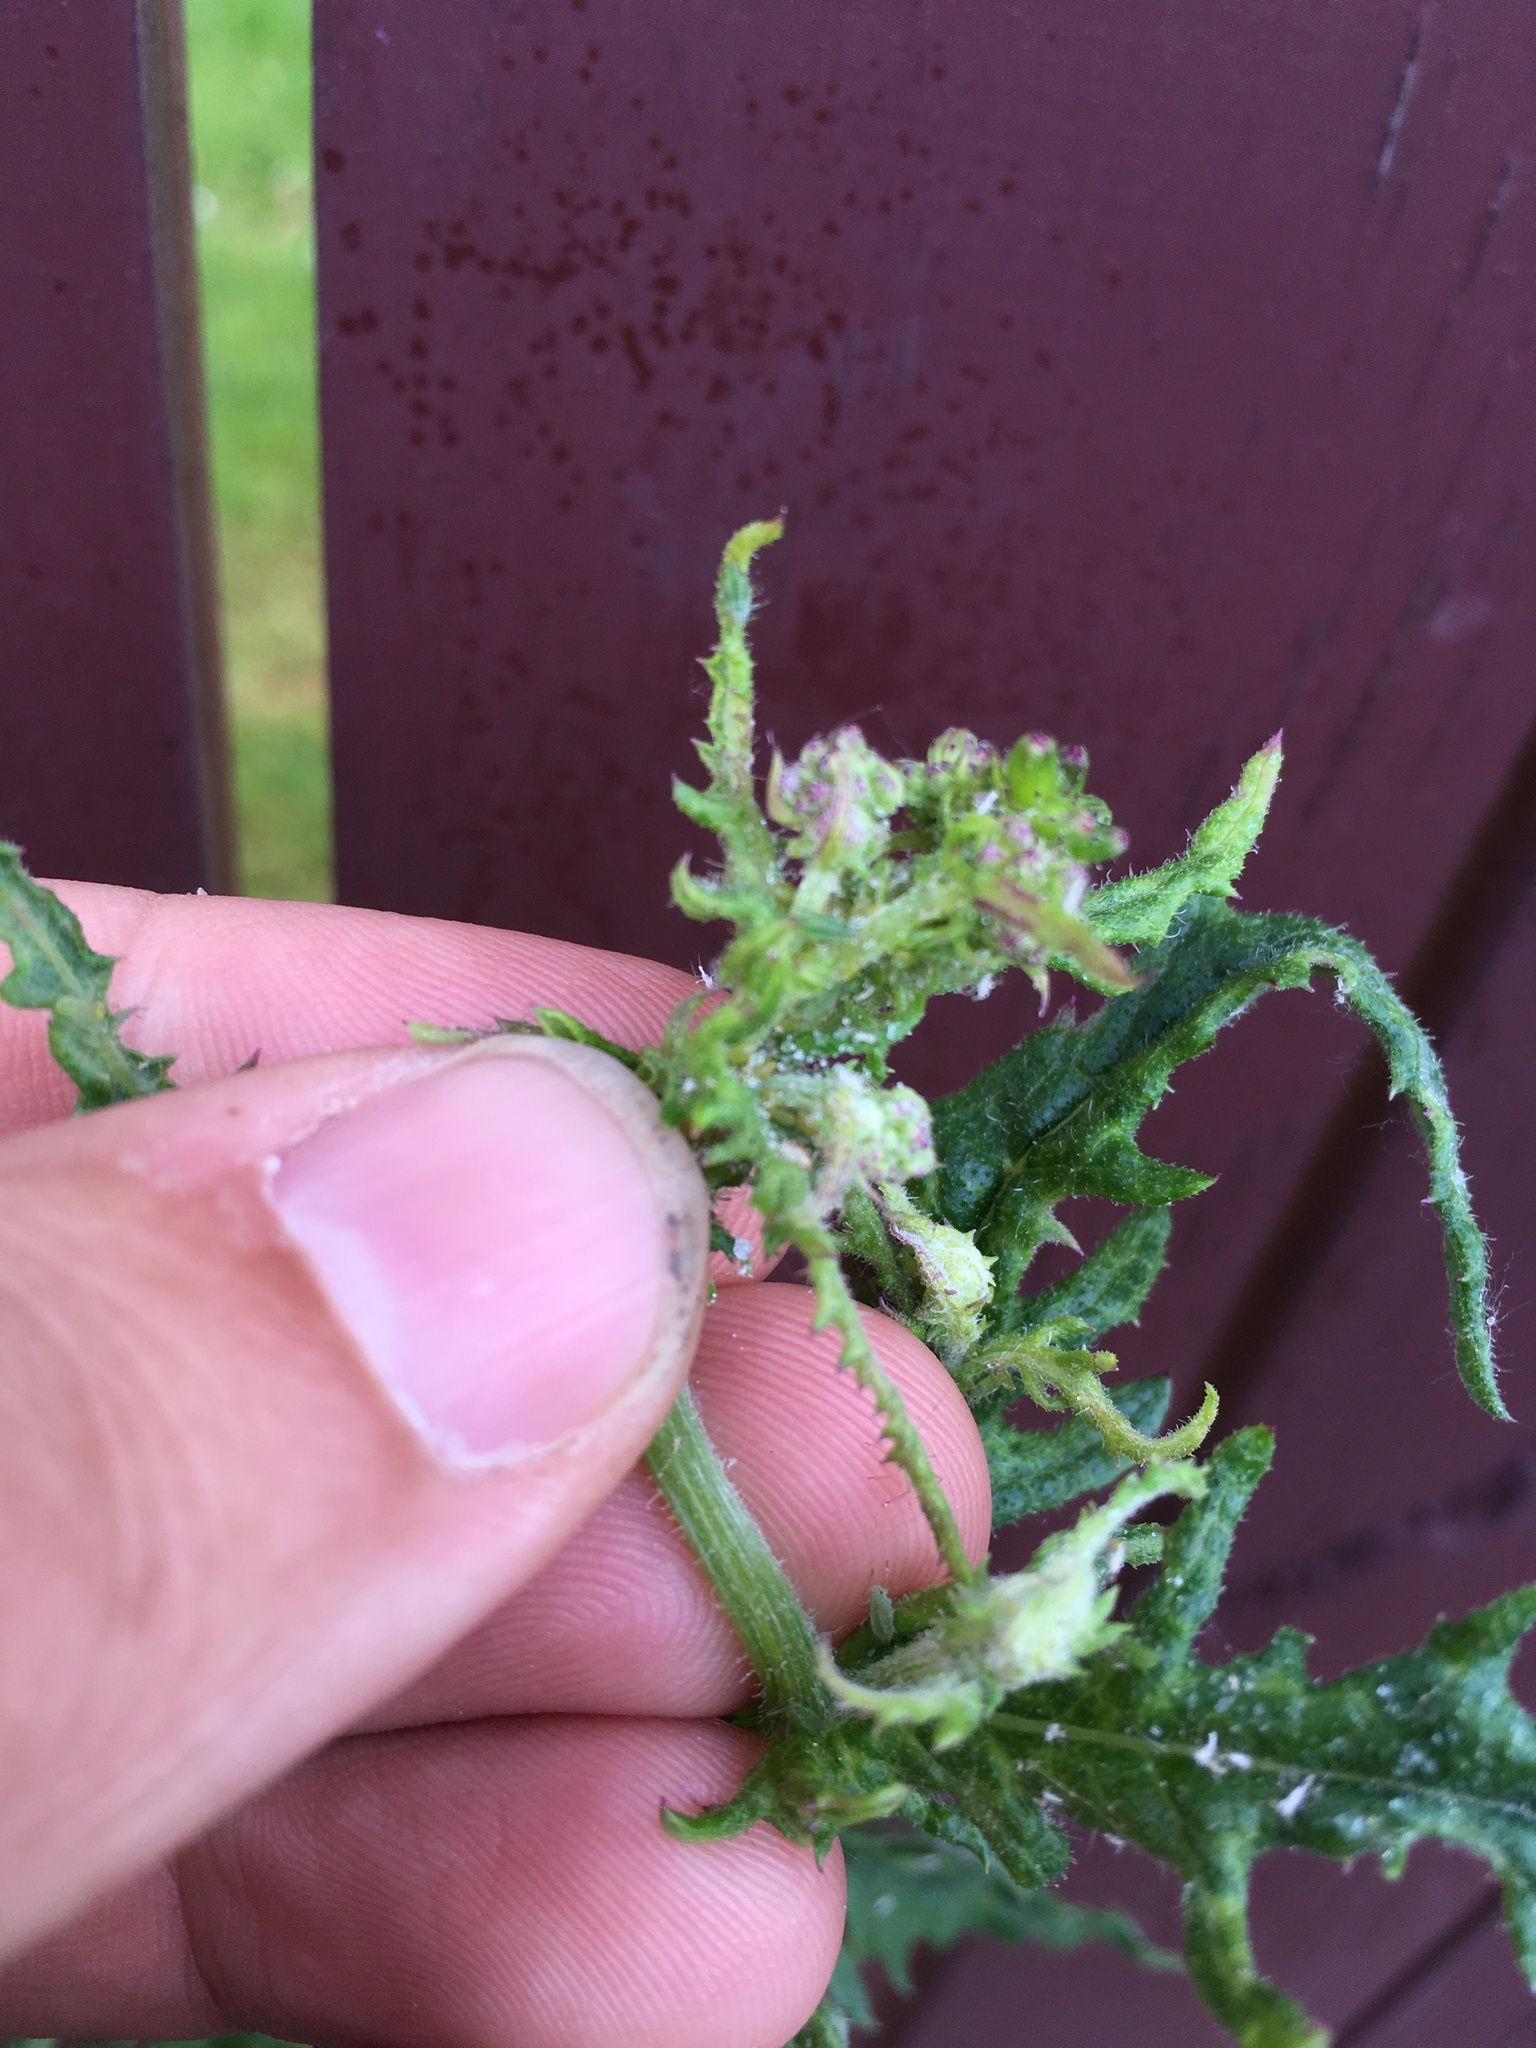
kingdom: Plantae
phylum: Tracheophyta
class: Magnoliopsida
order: Asterales
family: Asteraceae
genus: Senecio
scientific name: Senecio glomeratus
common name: Cutleaf burnweed
